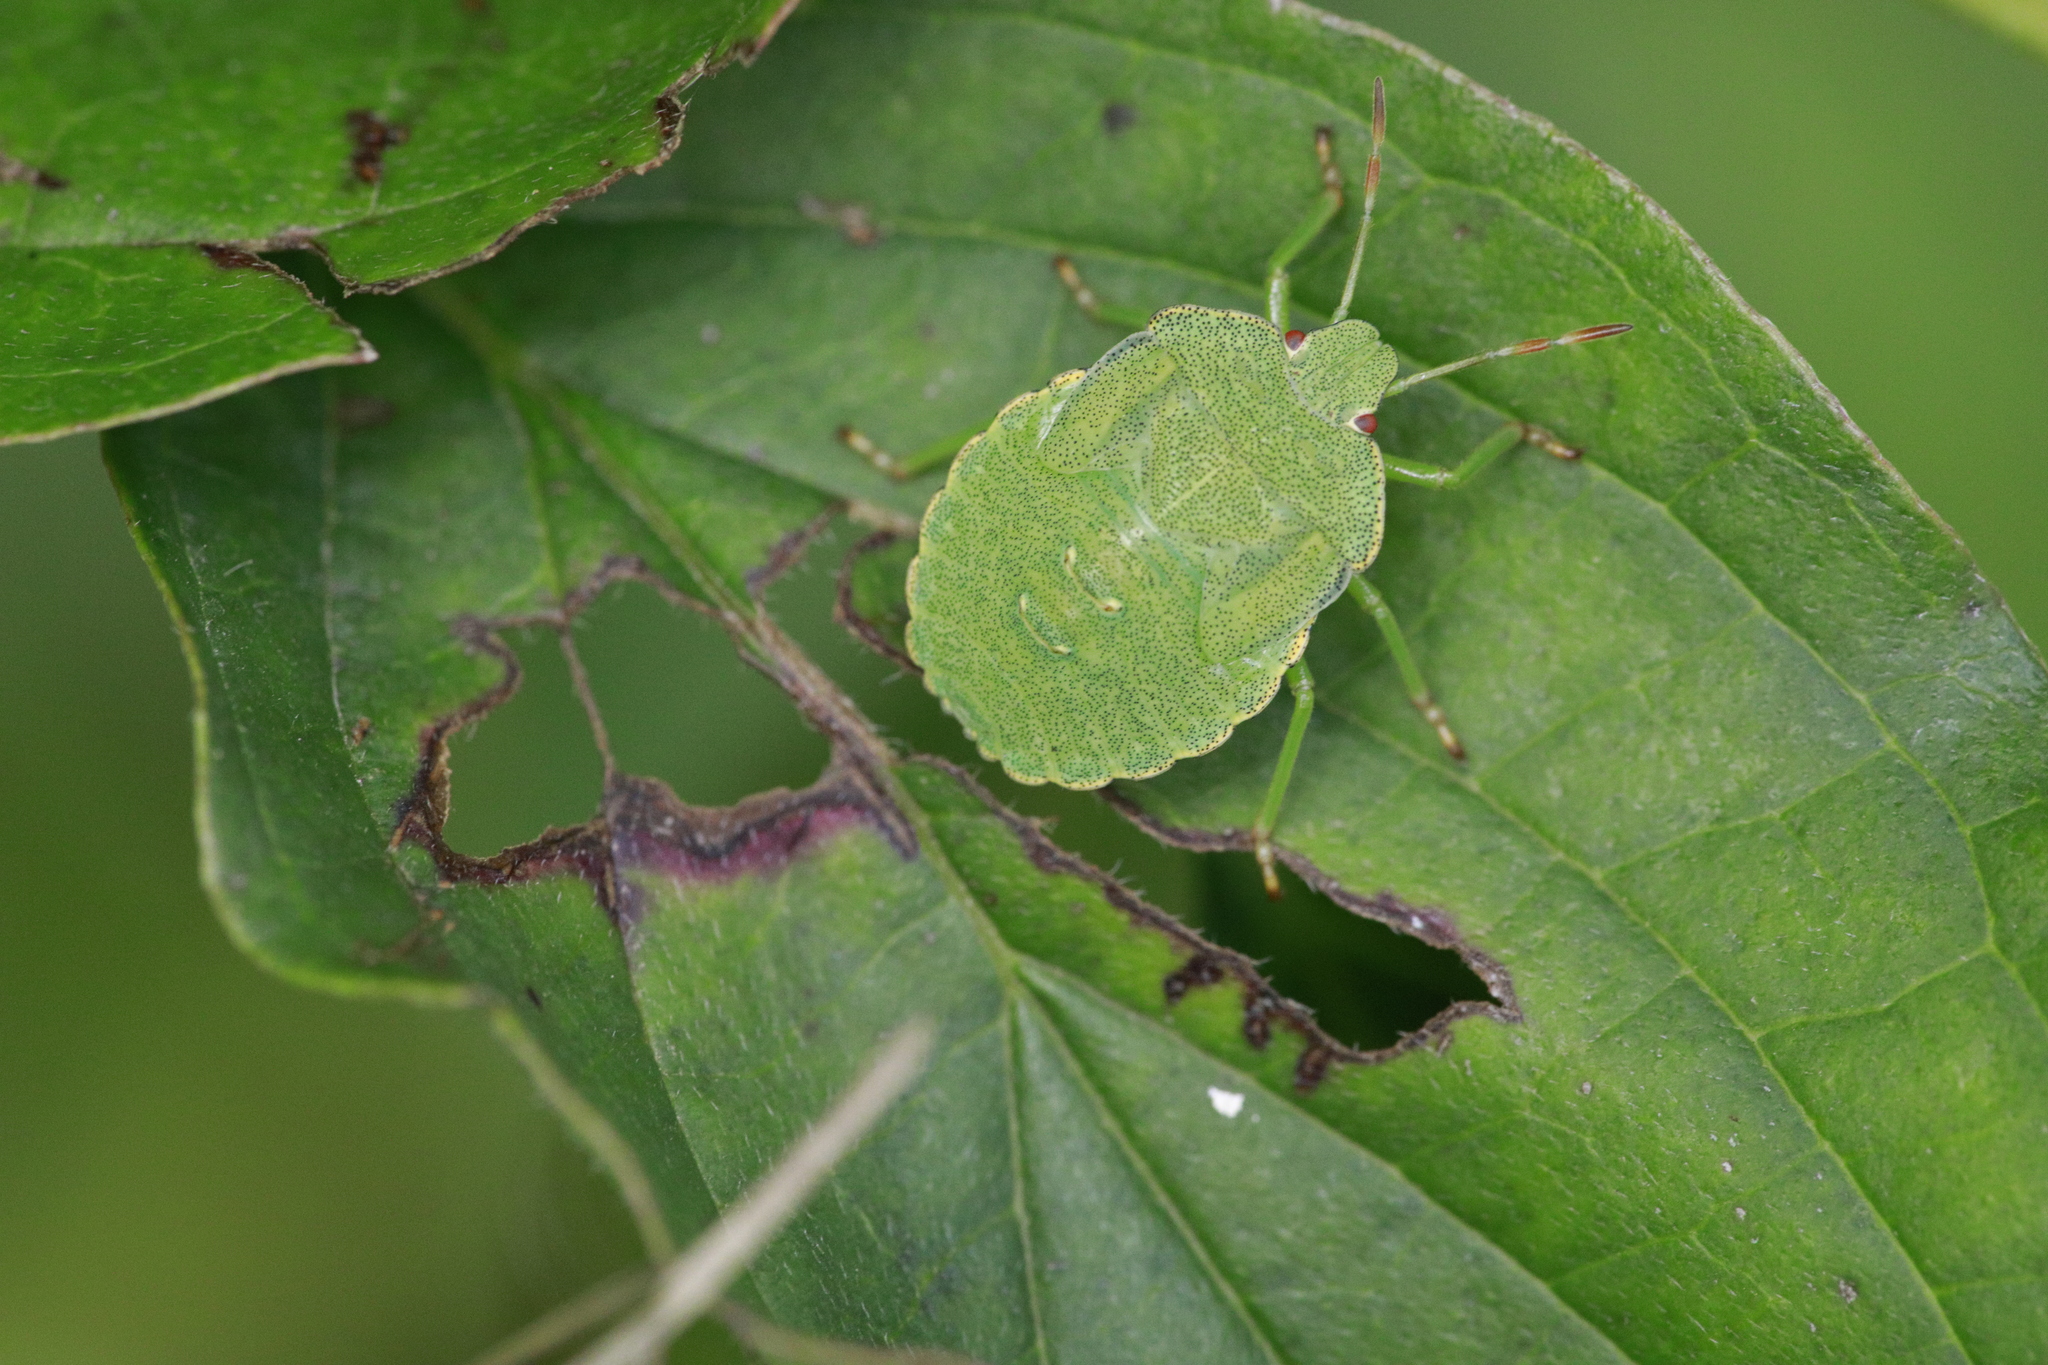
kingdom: Animalia
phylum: Arthropoda
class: Insecta
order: Hemiptera
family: Pentatomidae
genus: Palomena
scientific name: Palomena prasina
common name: Green shieldbug
